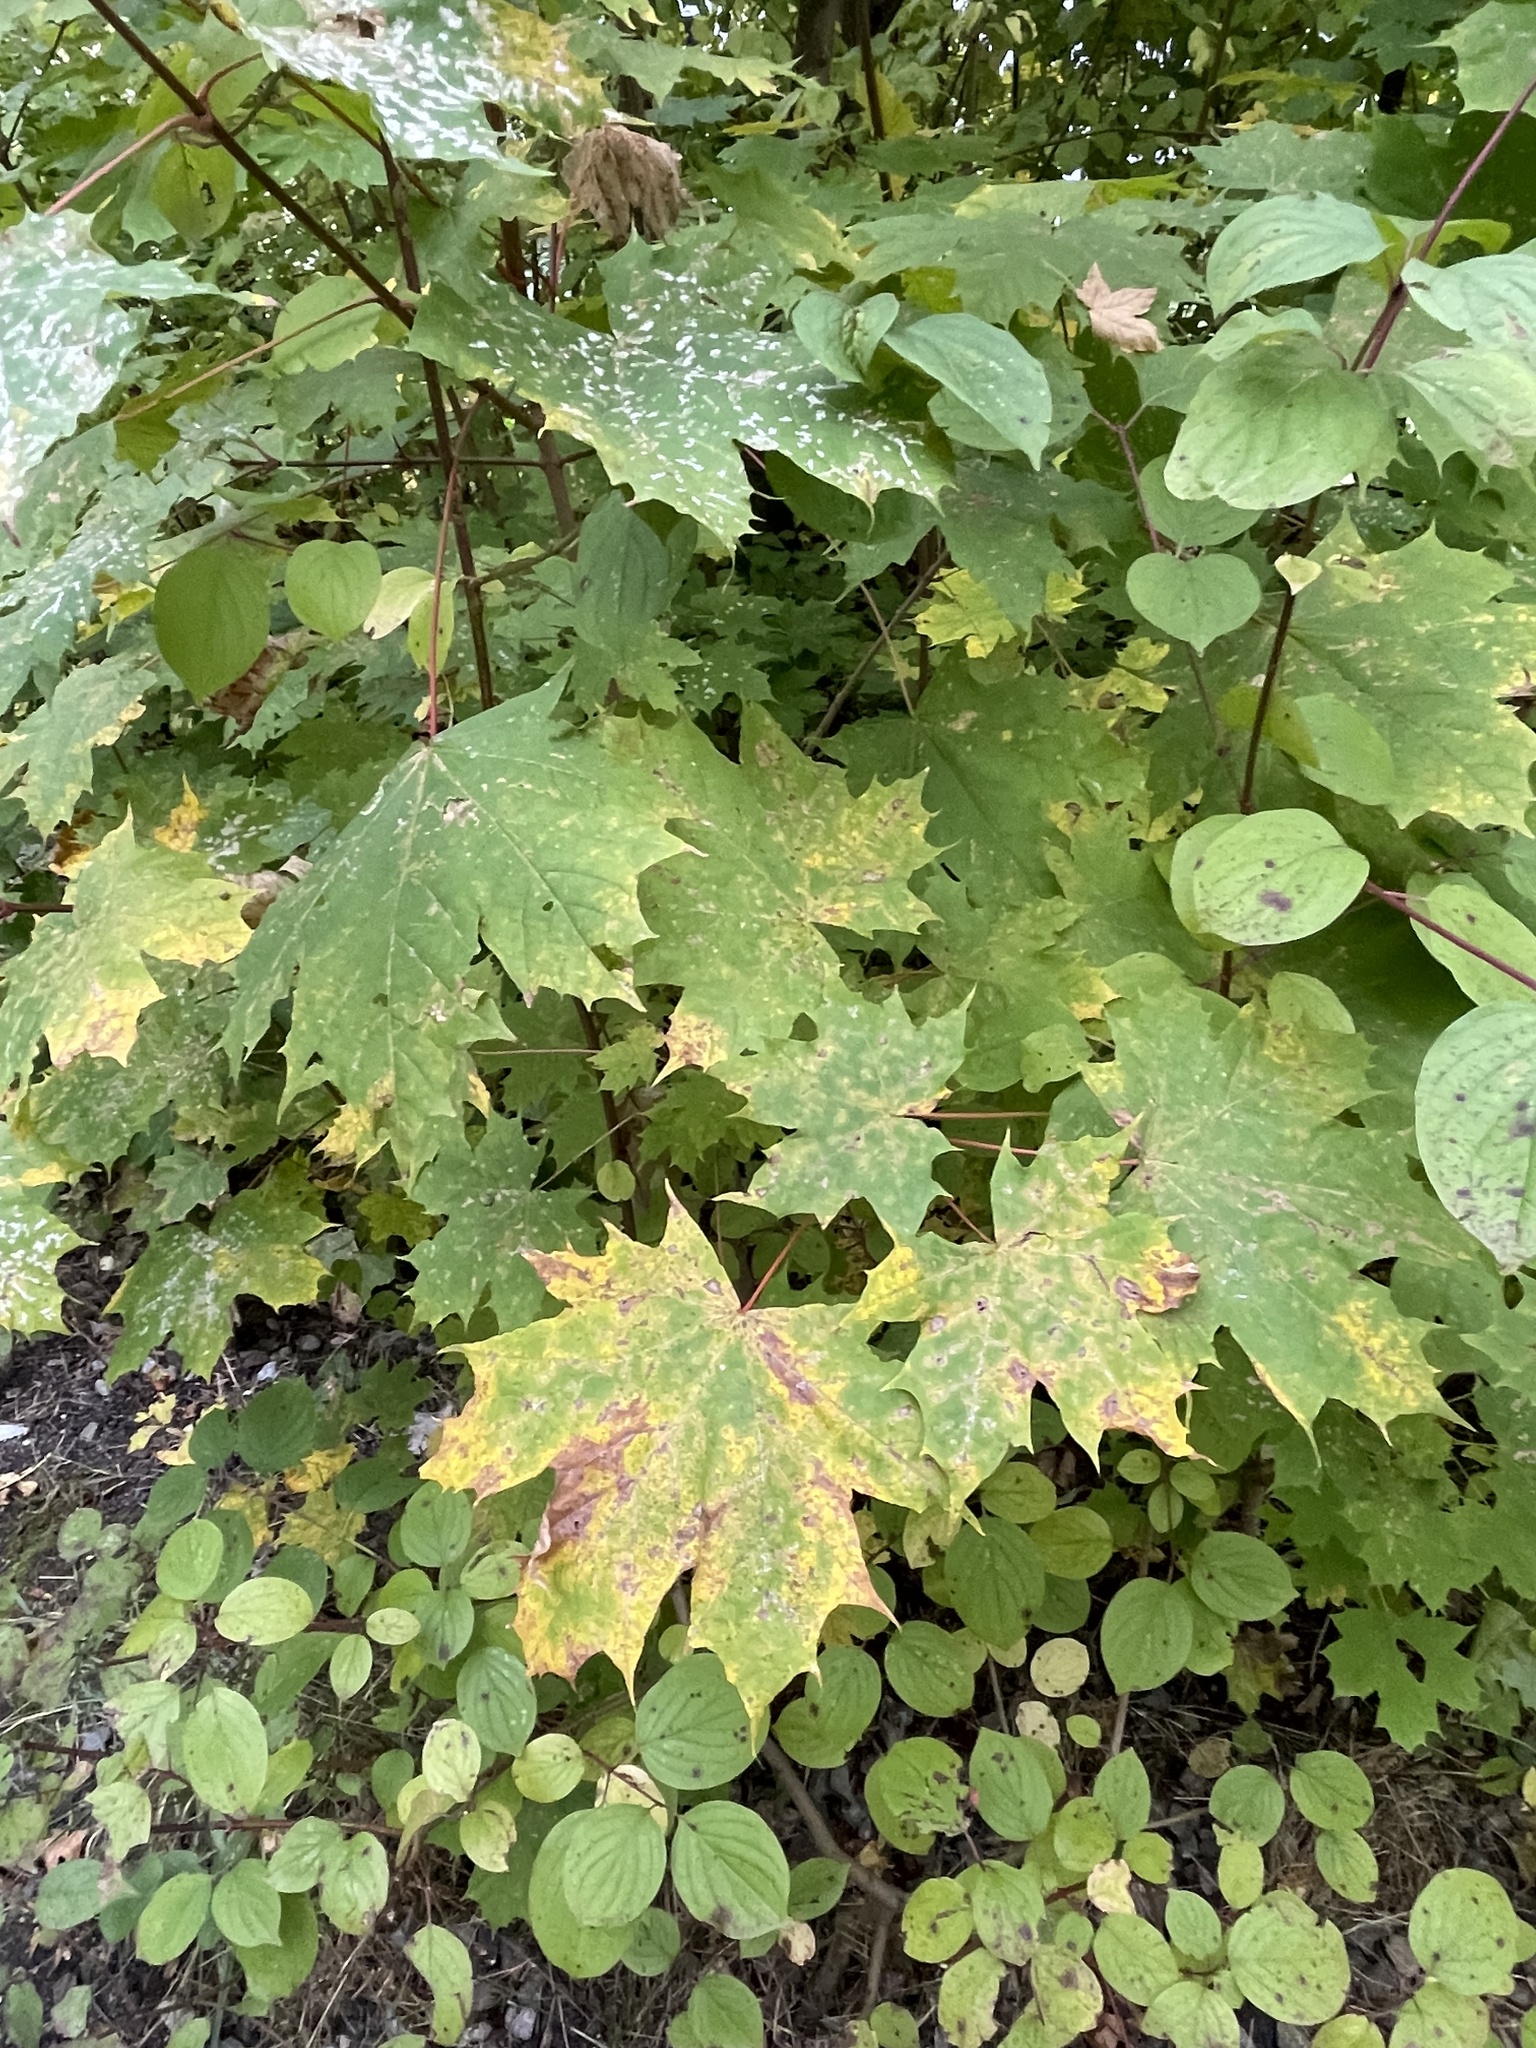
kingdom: Plantae
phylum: Tracheophyta
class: Magnoliopsida
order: Sapindales
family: Sapindaceae
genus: Acer
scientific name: Acer platanoides
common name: Norway maple
